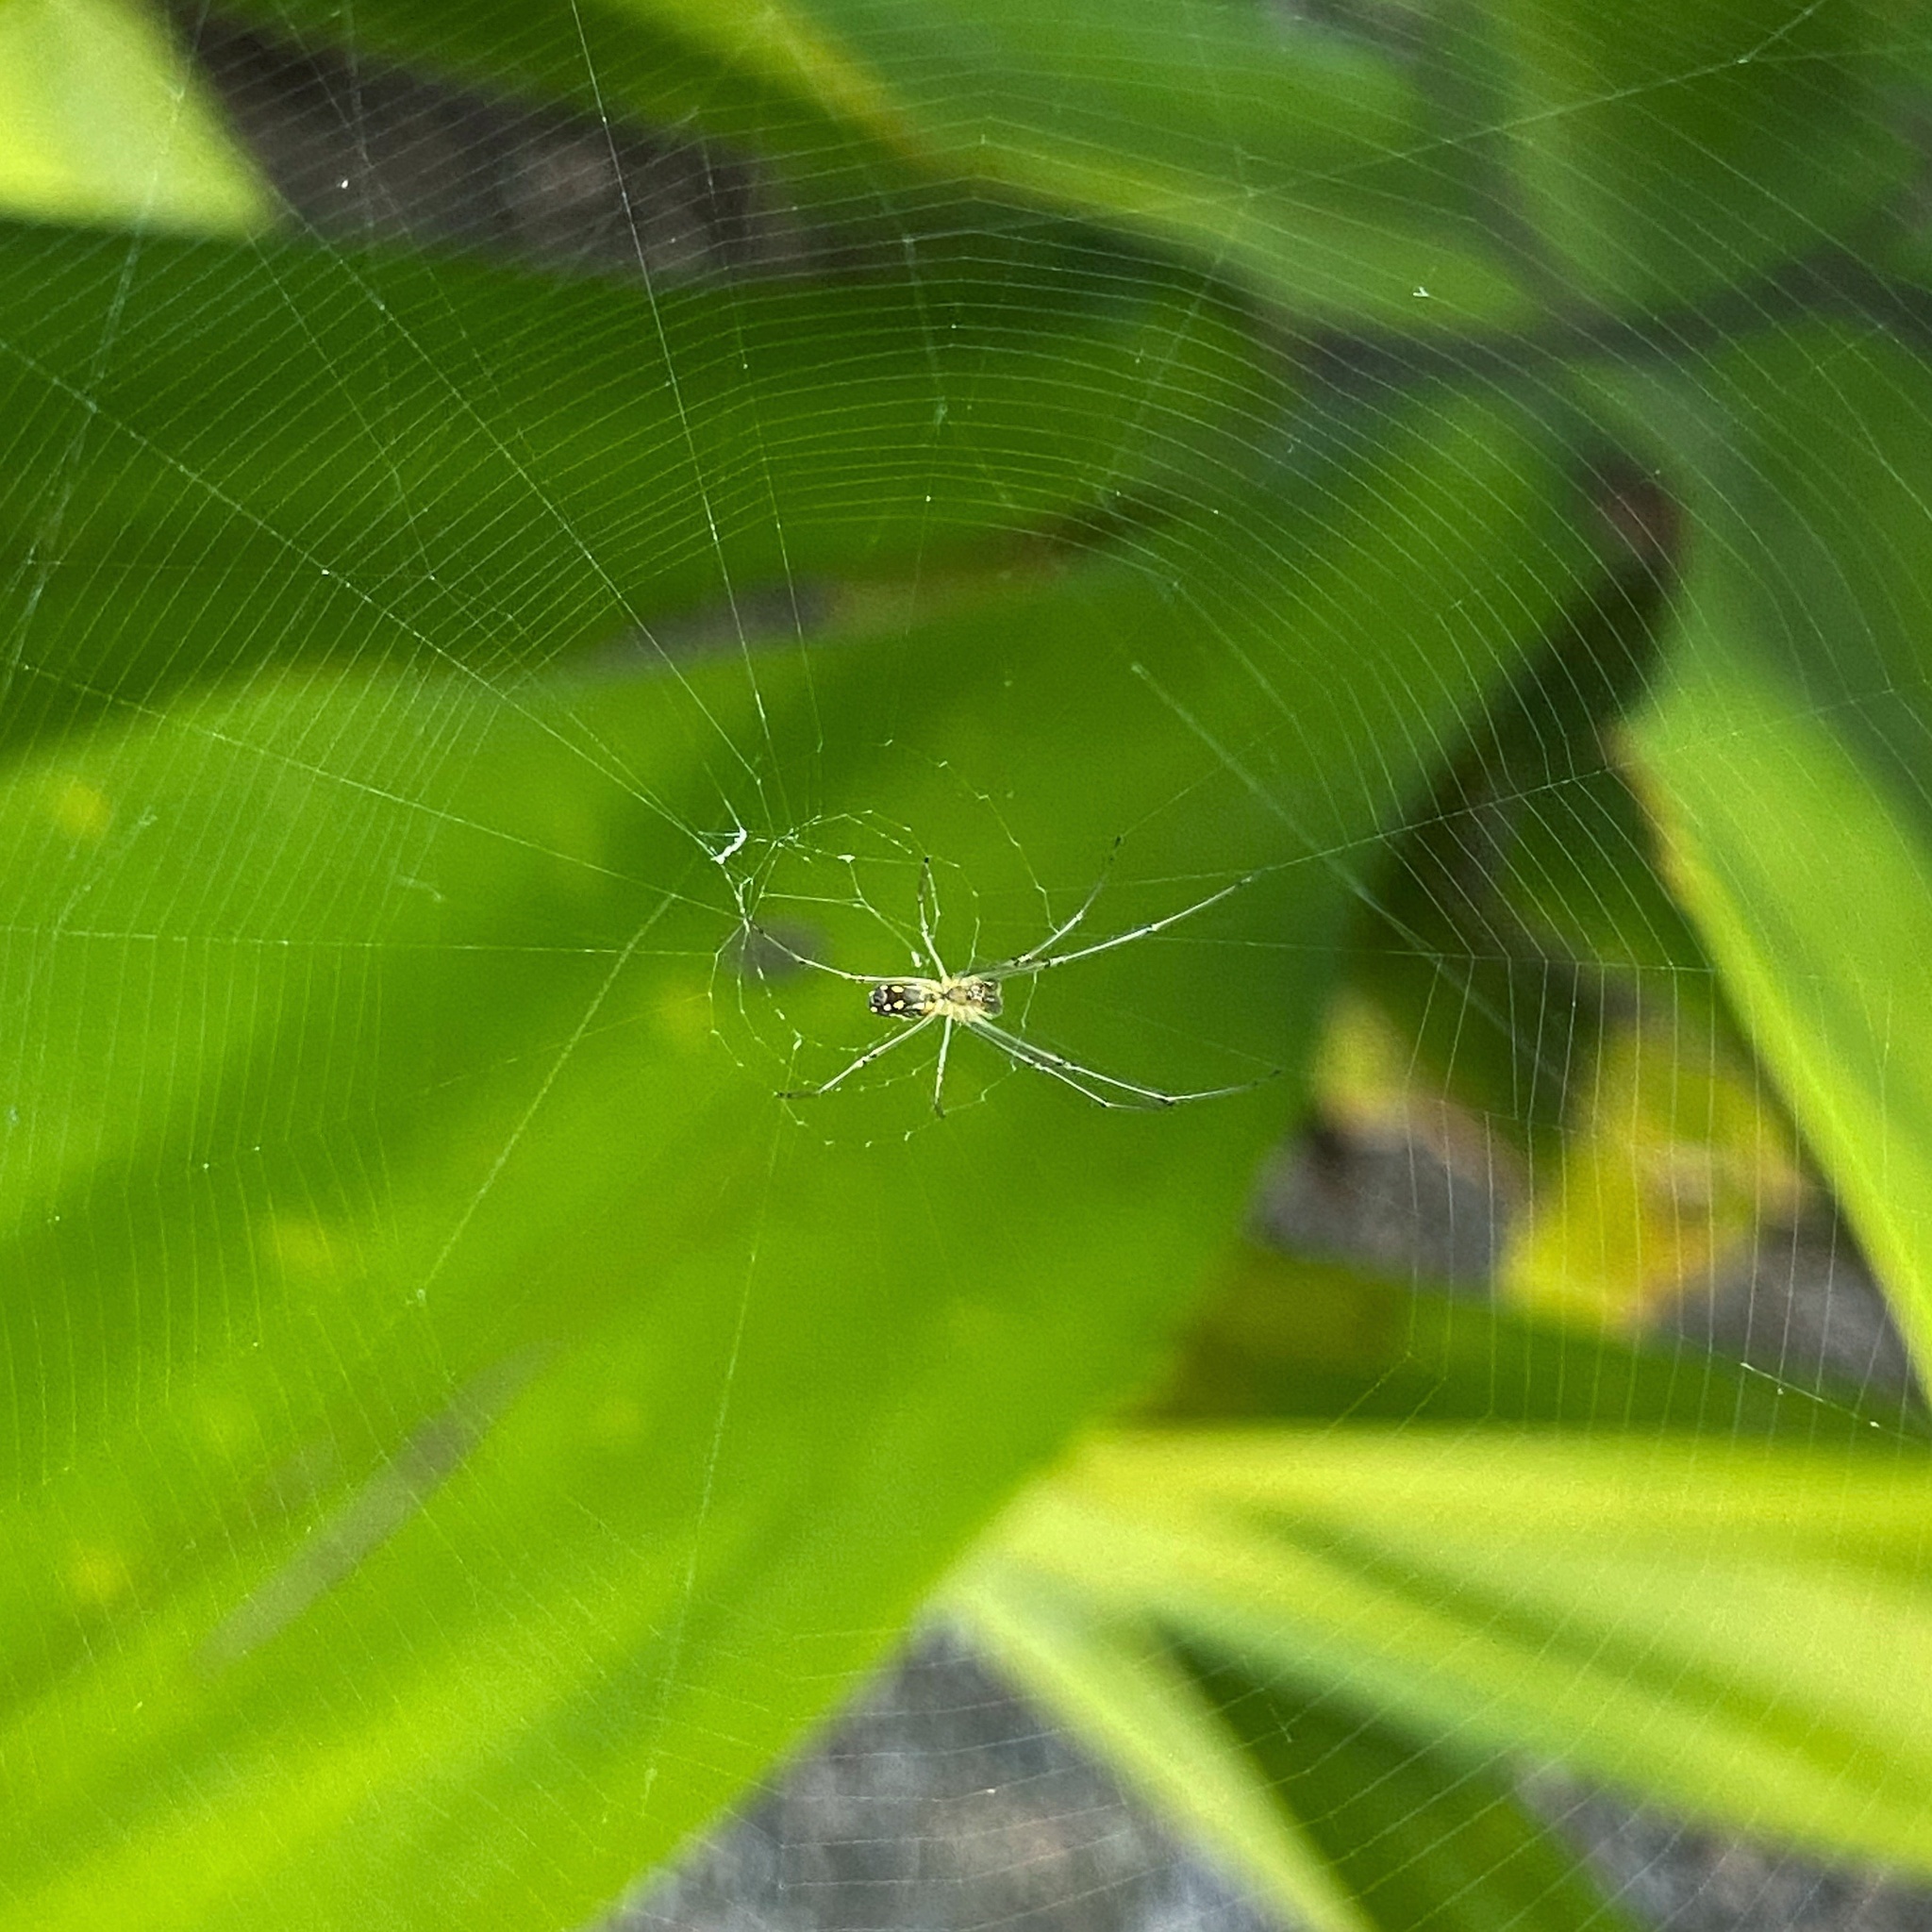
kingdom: Animalia
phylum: Arthropoda
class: Arachnida
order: Araneae
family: Tetragnathidae
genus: Leucauge
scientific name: Leucauge argyra
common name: Longjawed orb weavers
